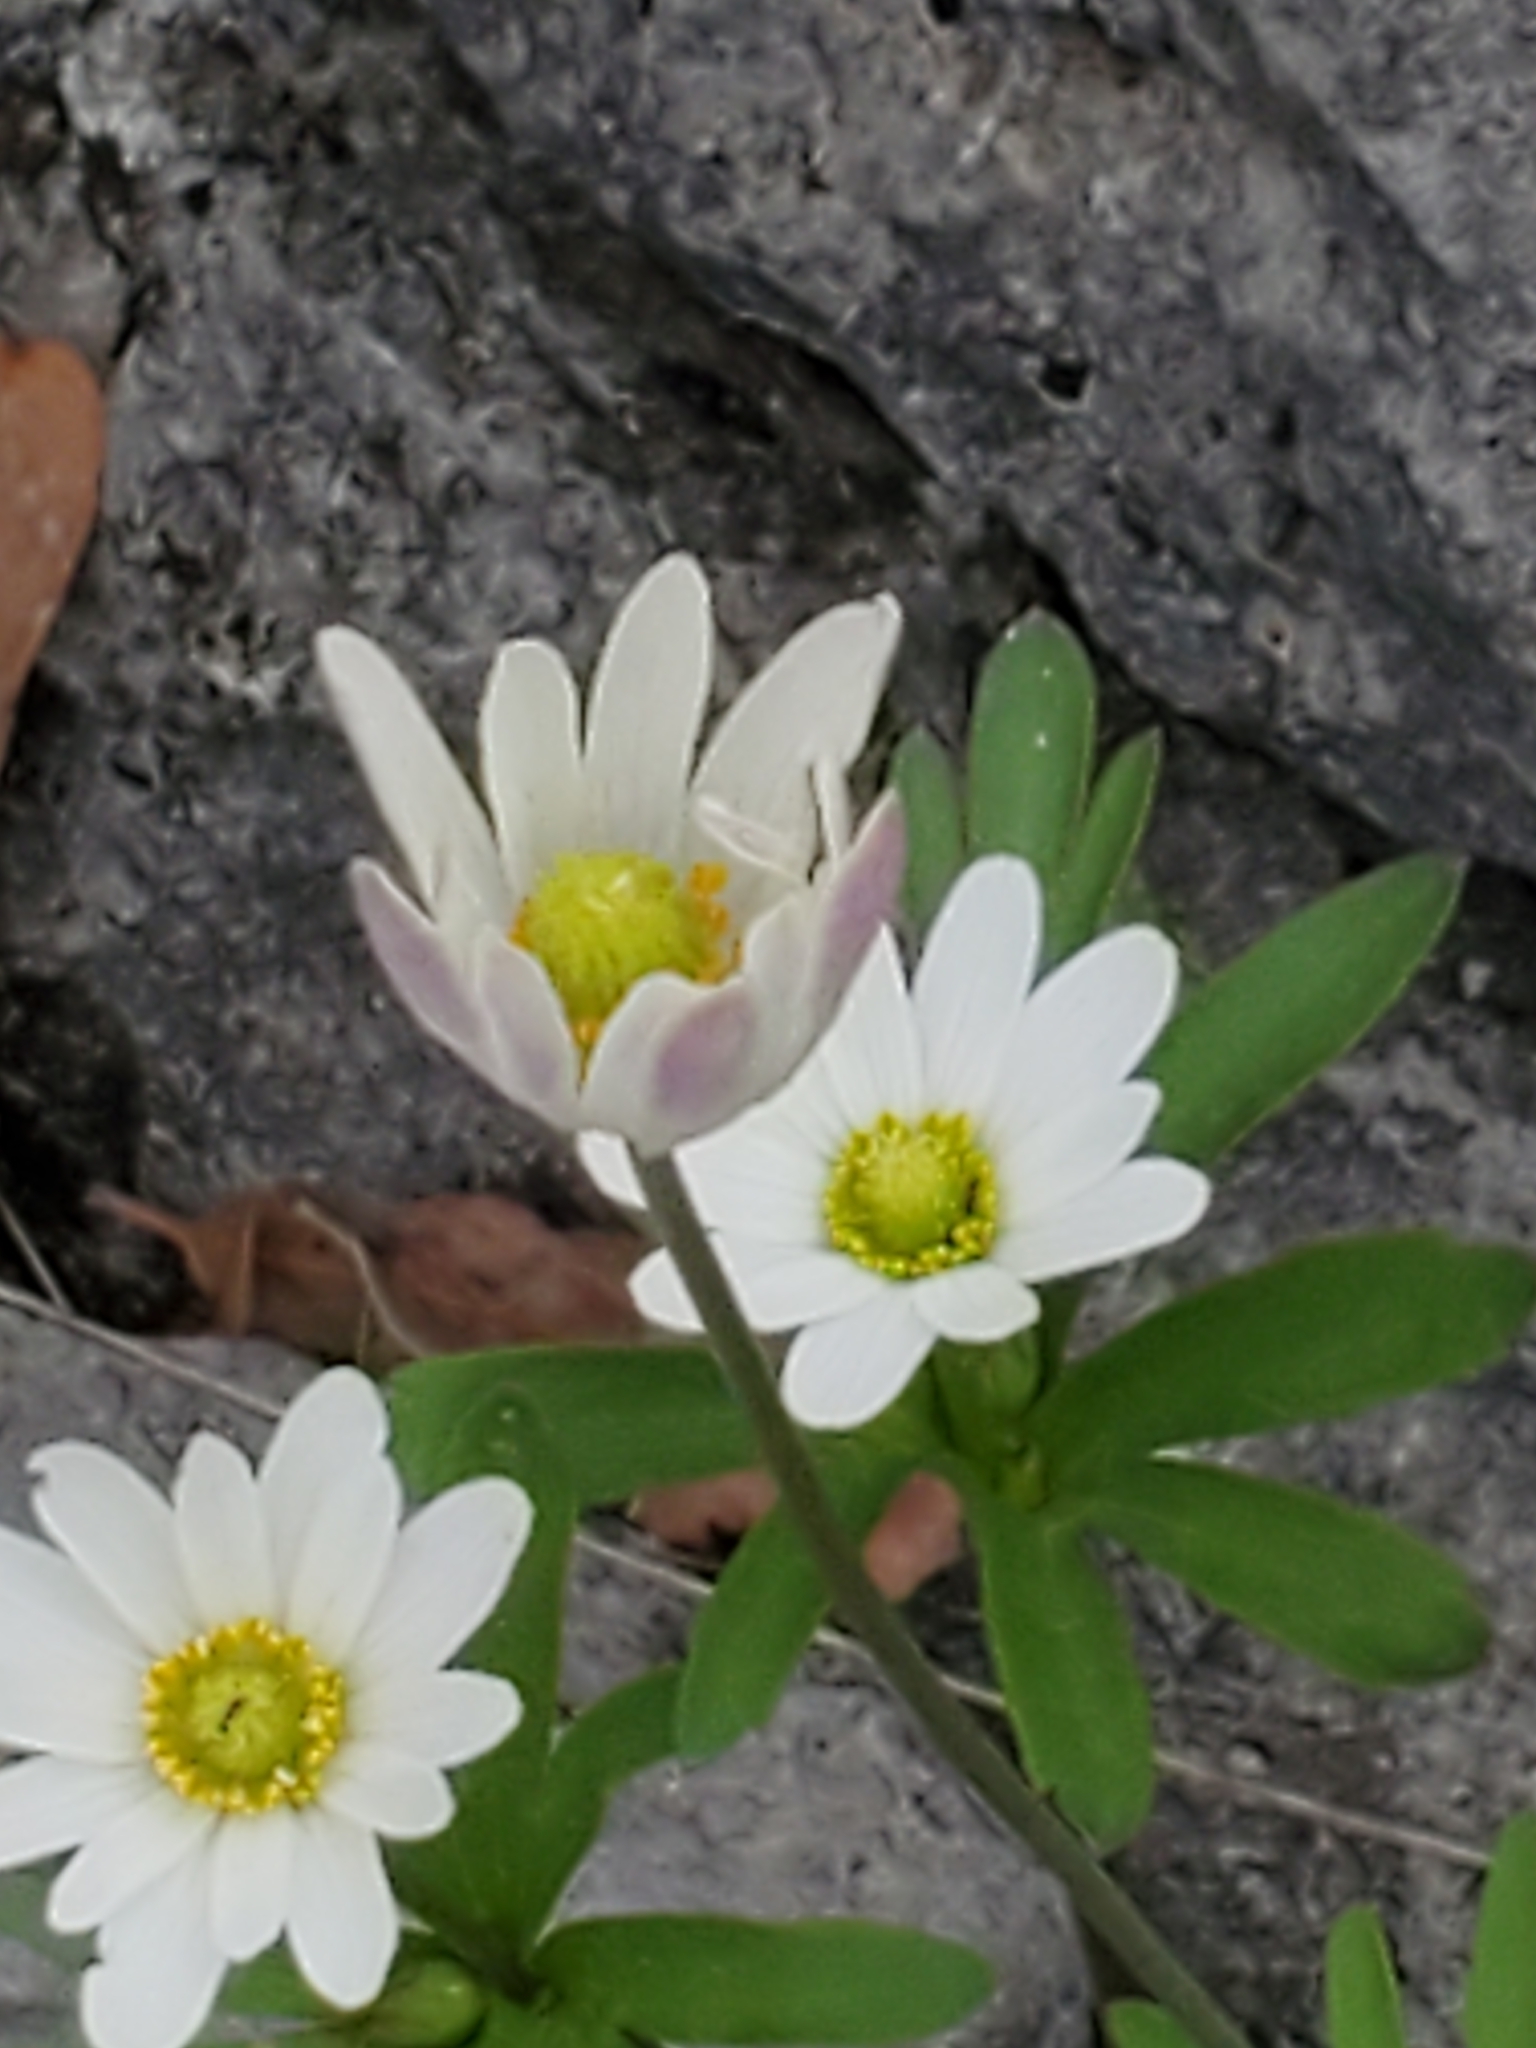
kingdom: Plantae
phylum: Tracheophyta
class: Magnoliopsida
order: Ranunculales
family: Ranunculaceae
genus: Anemone
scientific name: Anemone edwardsiana
